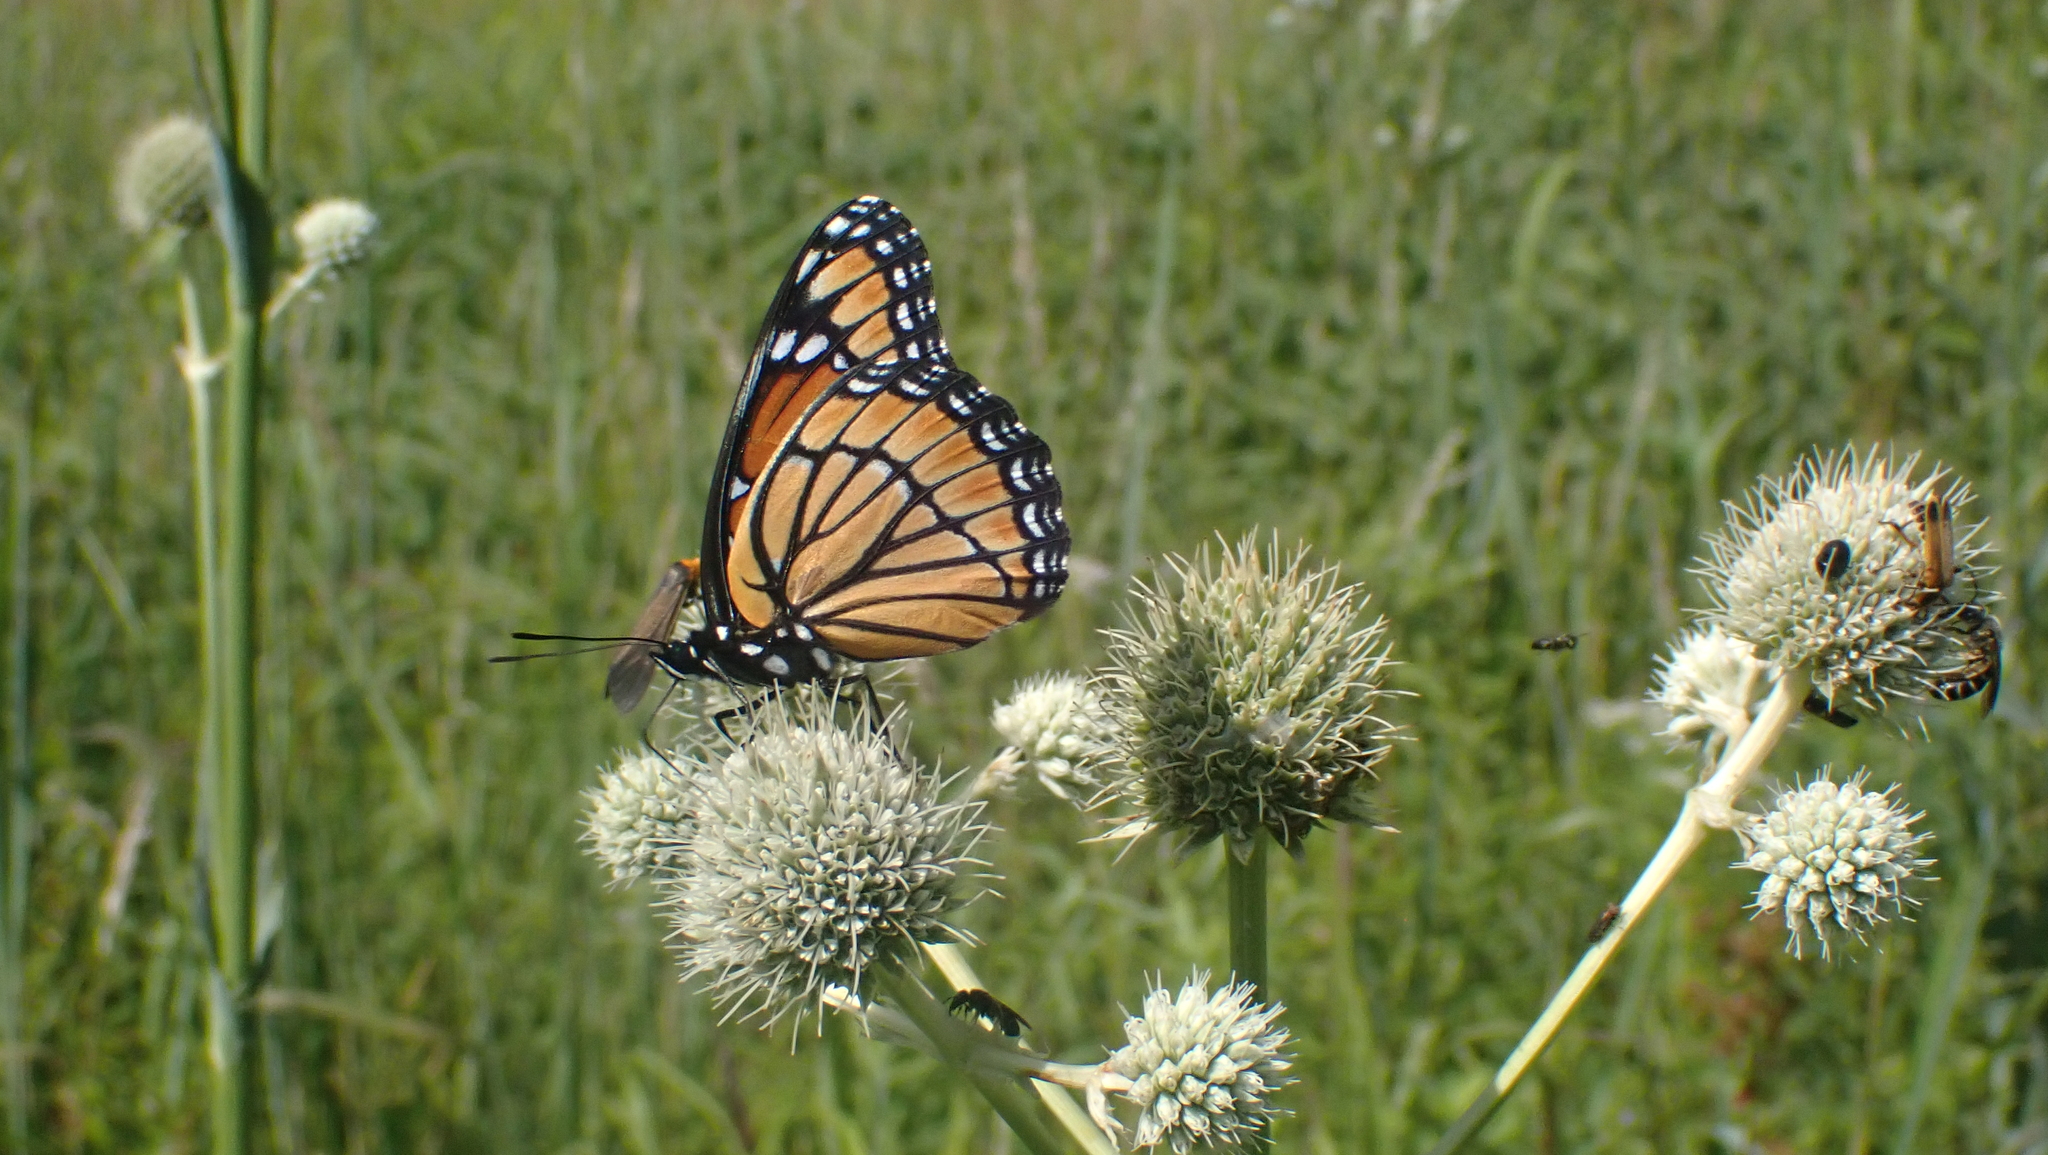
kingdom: Animalia
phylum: Arthropoda
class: Insecta
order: Lepidoptera
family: Nymphalidae
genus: Limenitis
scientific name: Limenitis archippus
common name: Viceroy
